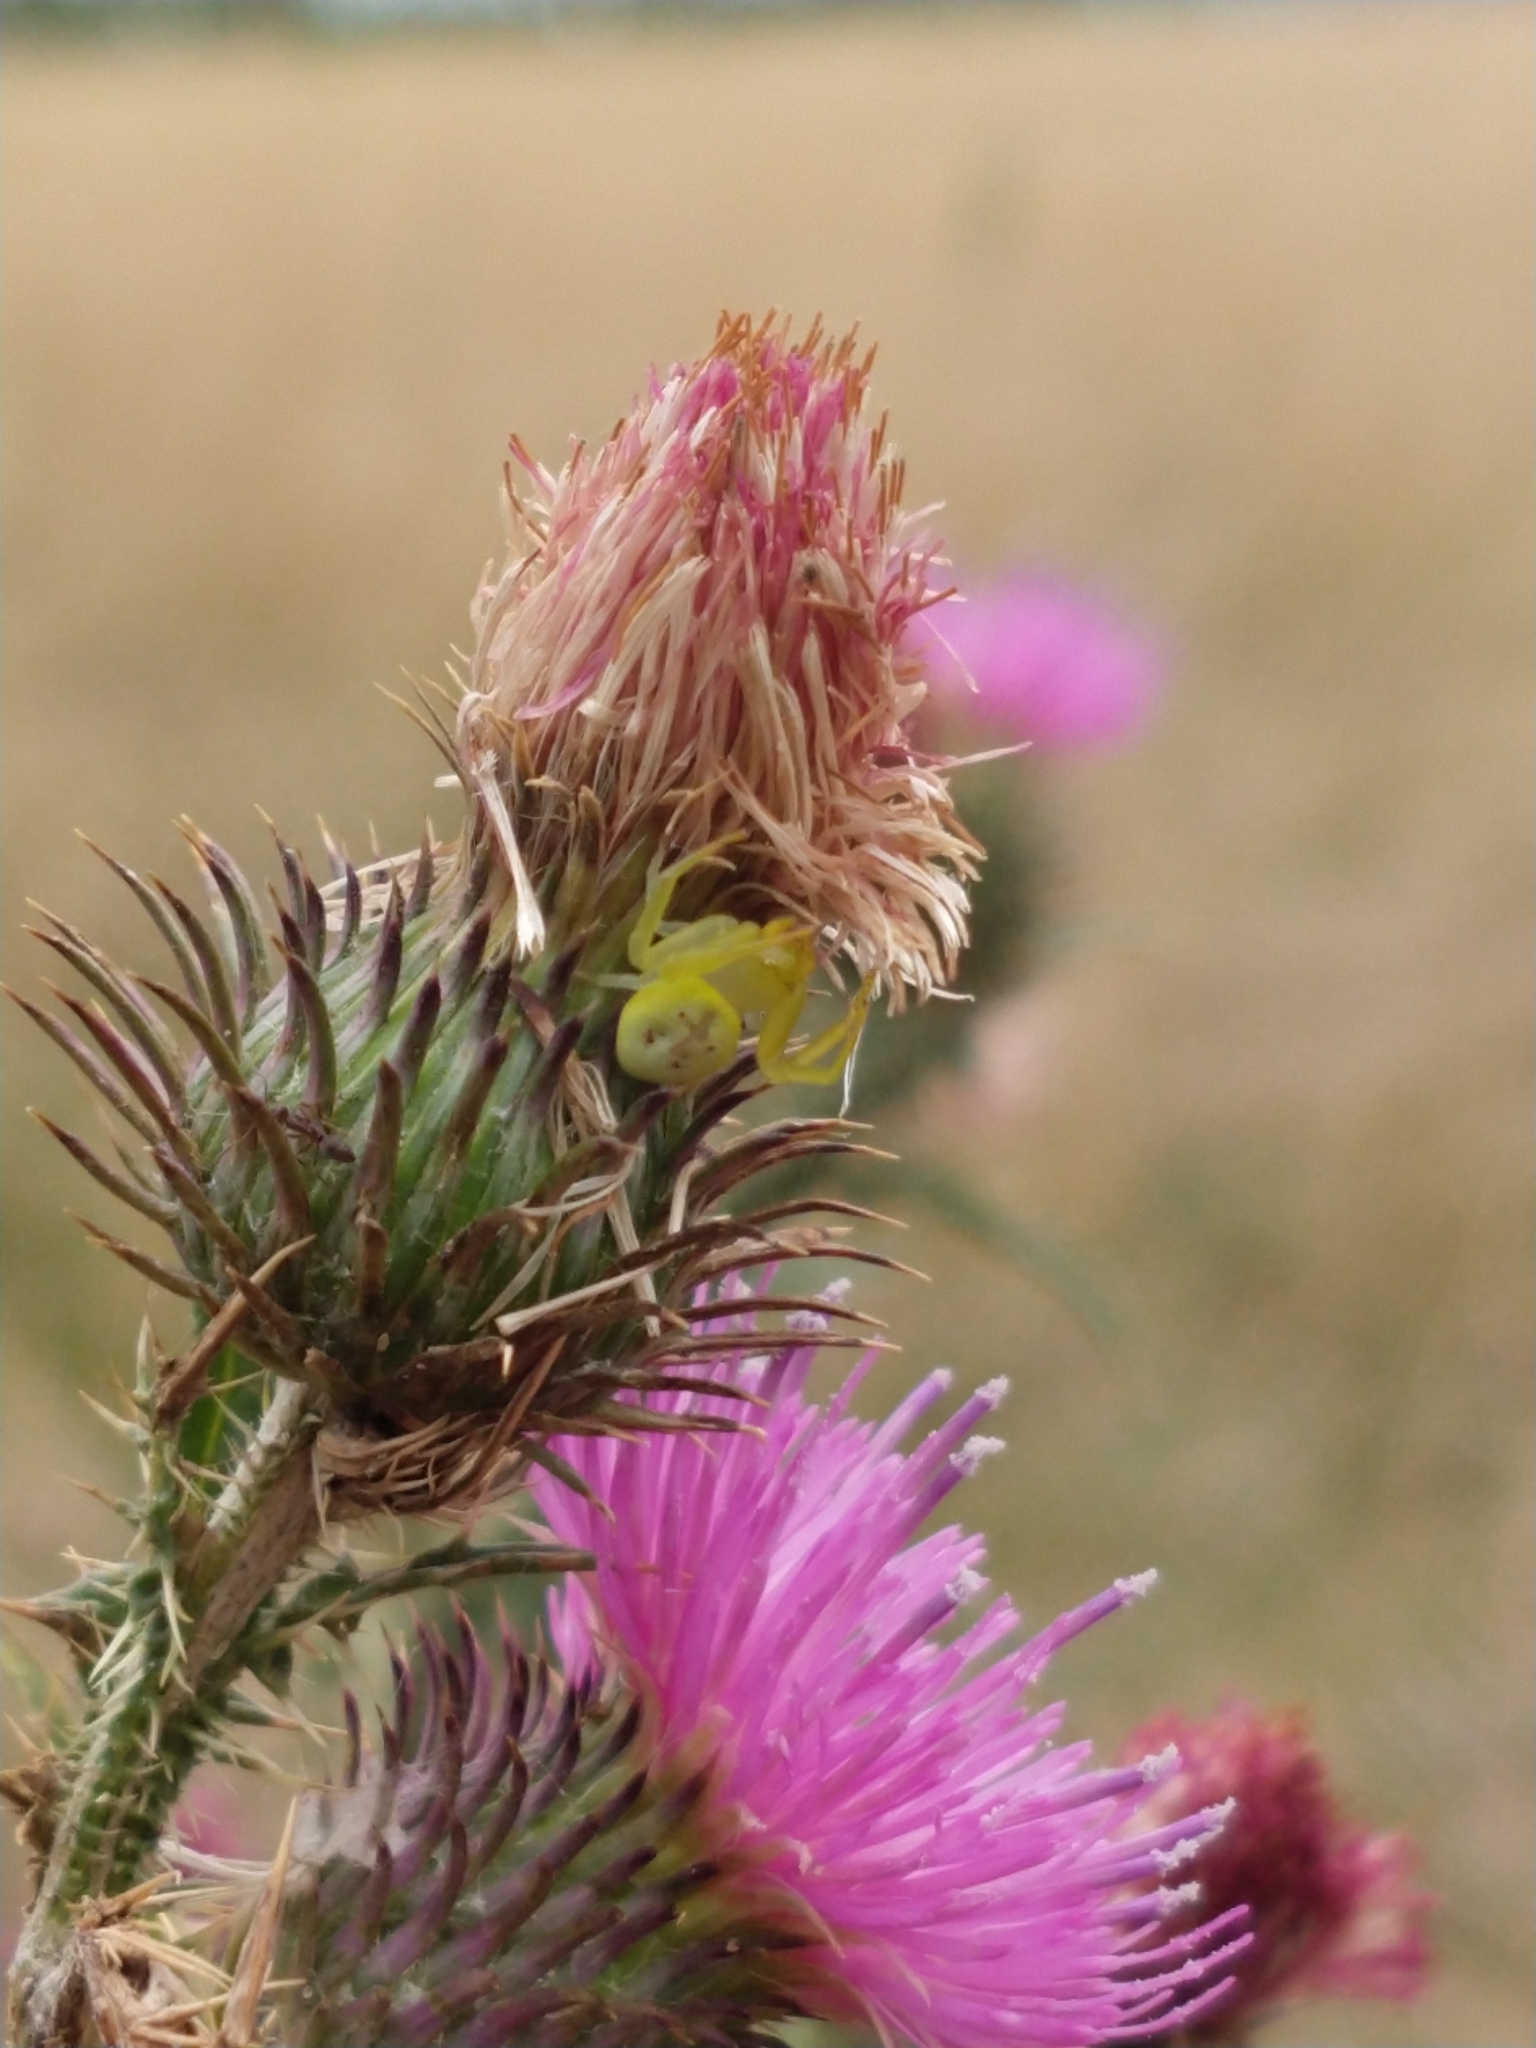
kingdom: Animalia
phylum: Arthropoda
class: Arachnida
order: Araneae
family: Thomisidae
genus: Misumenops
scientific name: Misumenops
